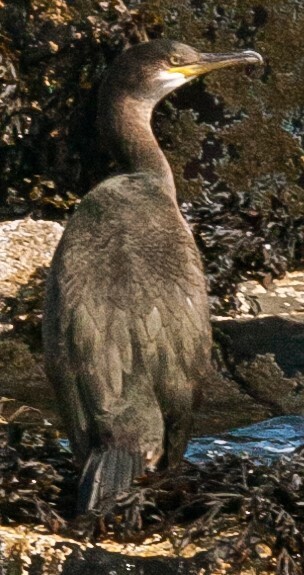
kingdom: Animalia
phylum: Chordata
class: Aves
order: Suliformes
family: Phalacrocoracidae
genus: Phalacrocorax
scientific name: Phalacrocorax aristotelis
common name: European shag
